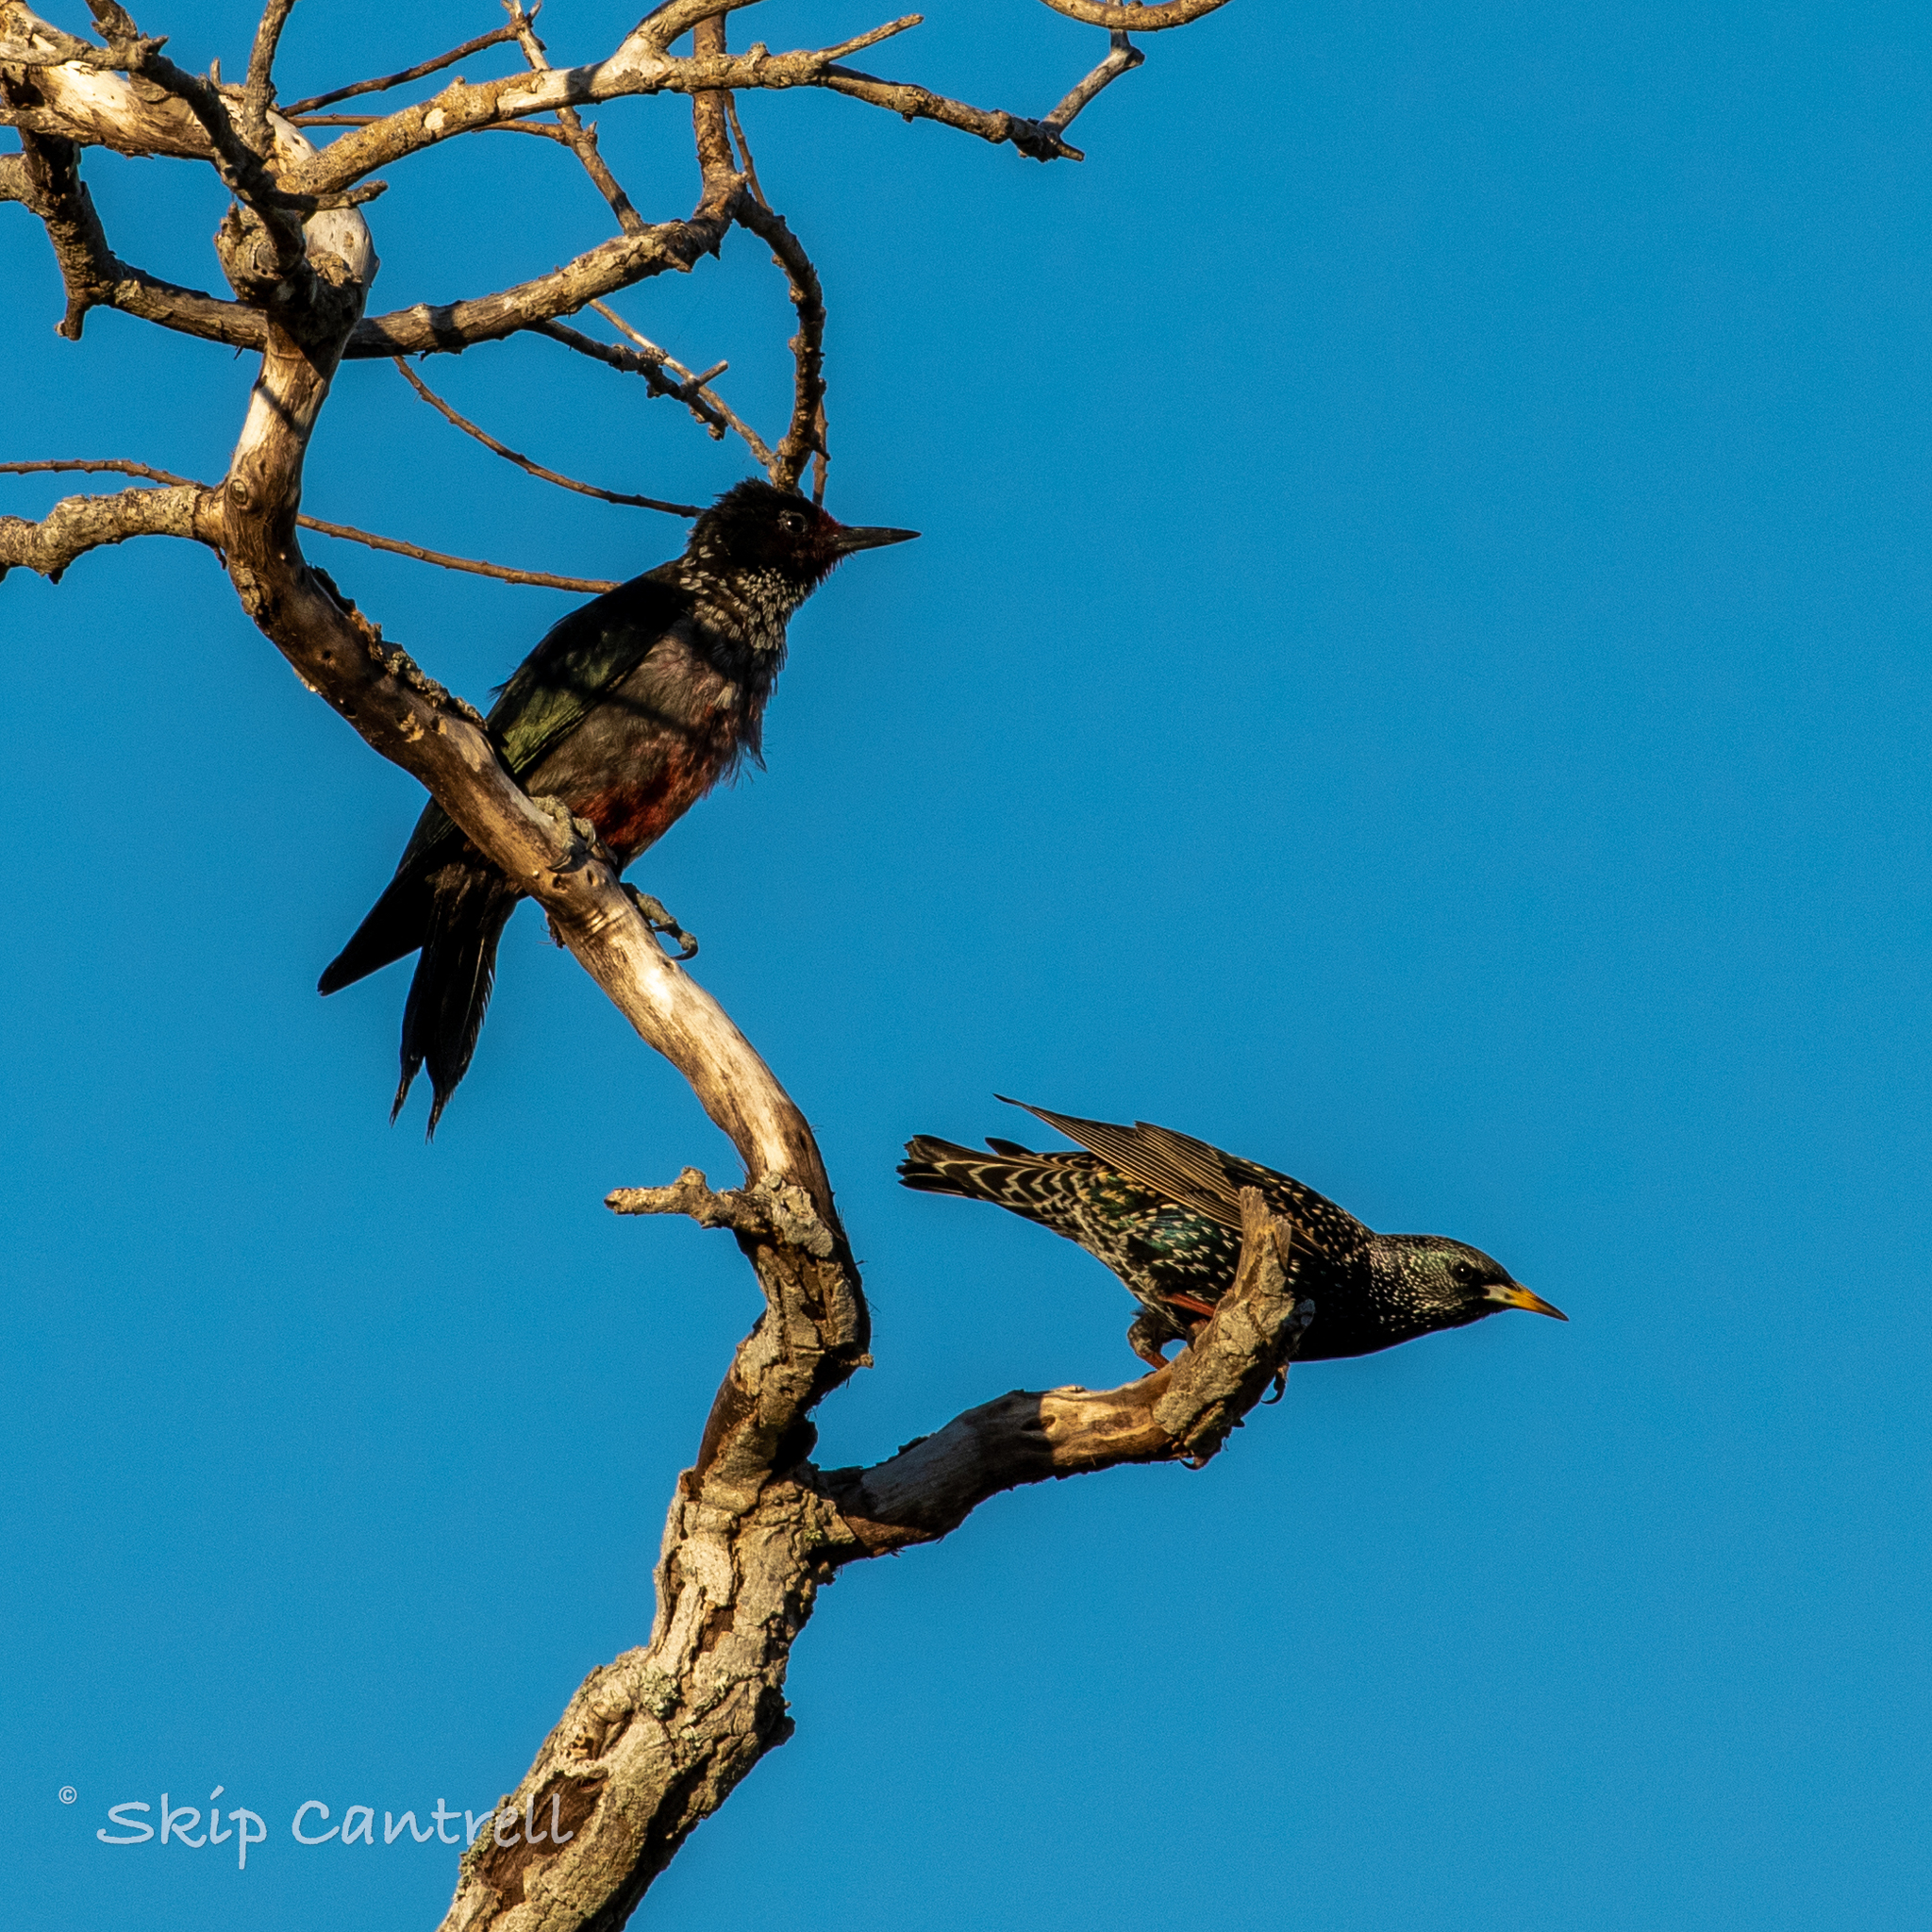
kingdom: Animalia
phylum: Chordata
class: Aves
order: Piciformes
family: Picidae
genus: Melanerpes
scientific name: Melanerpes lewis
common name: Lewis's woodpecker
